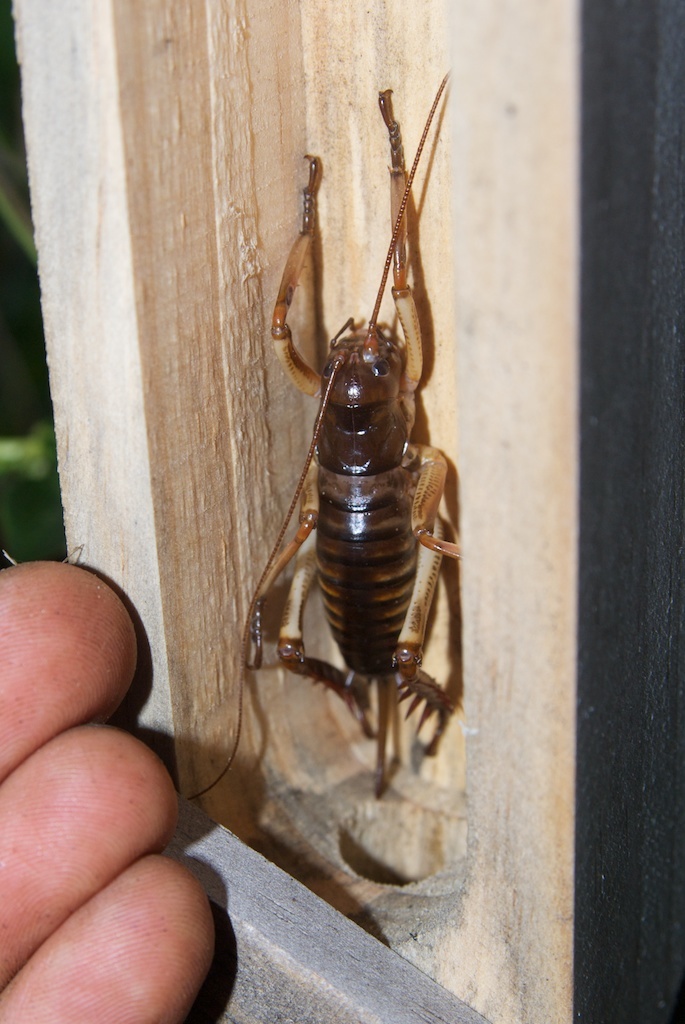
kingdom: Animalia
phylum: Arthropoda
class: Insecta
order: Orthoptera
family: Anostostomatidae
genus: Hemideina
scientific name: Hemideina crassidens
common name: Wellington tree weta
